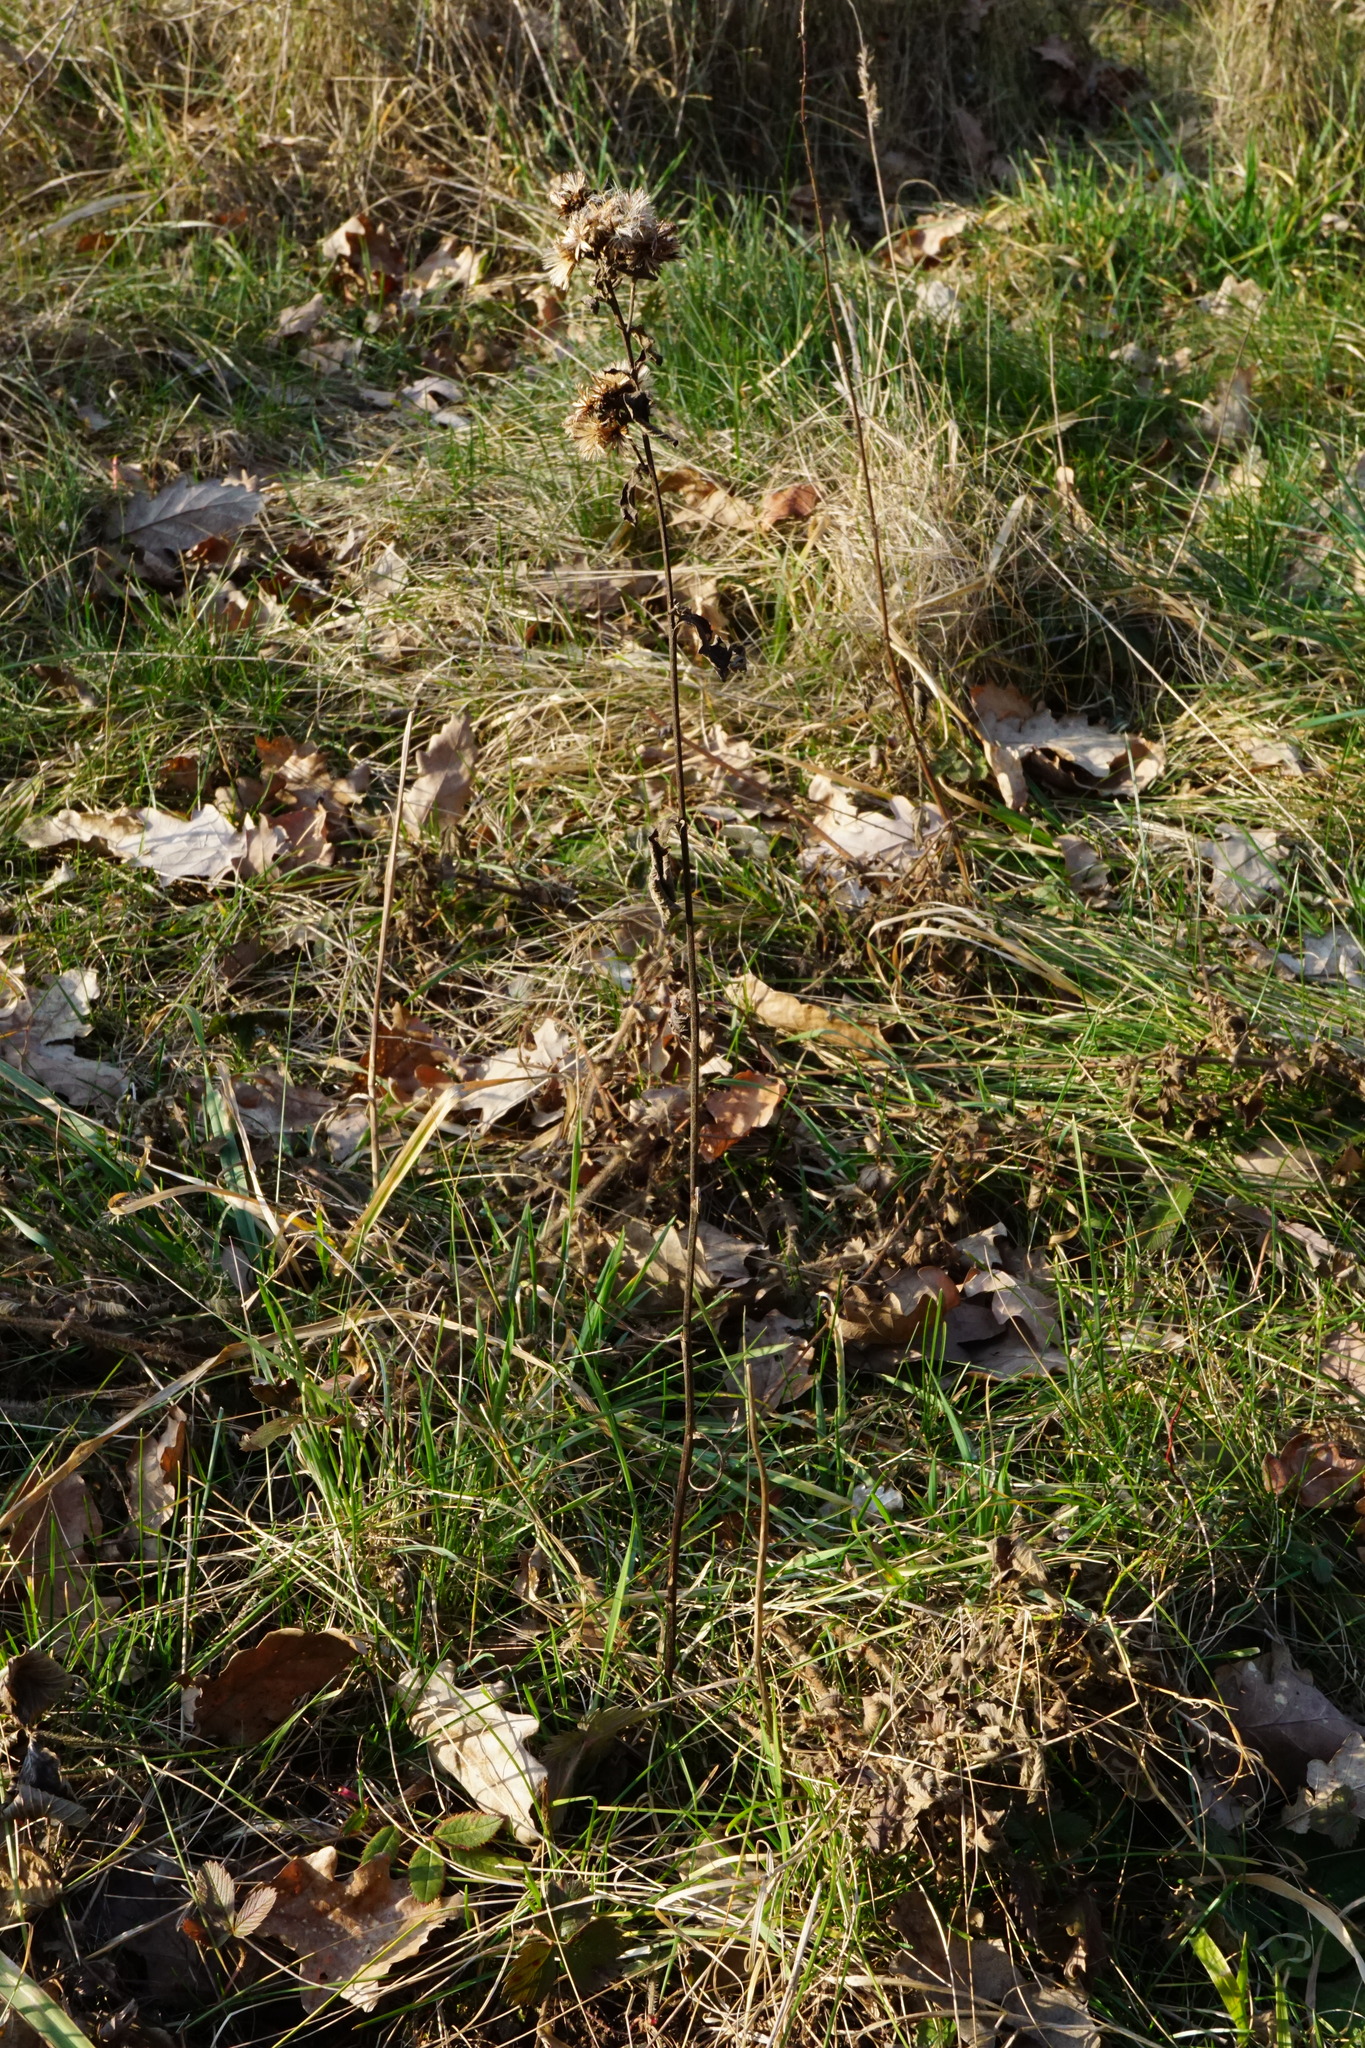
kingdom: Plantae
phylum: Tracheophyta
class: Magnoliopsida
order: Asterales
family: Asteraceae
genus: Pentanema
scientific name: Pentanema squarrosum
